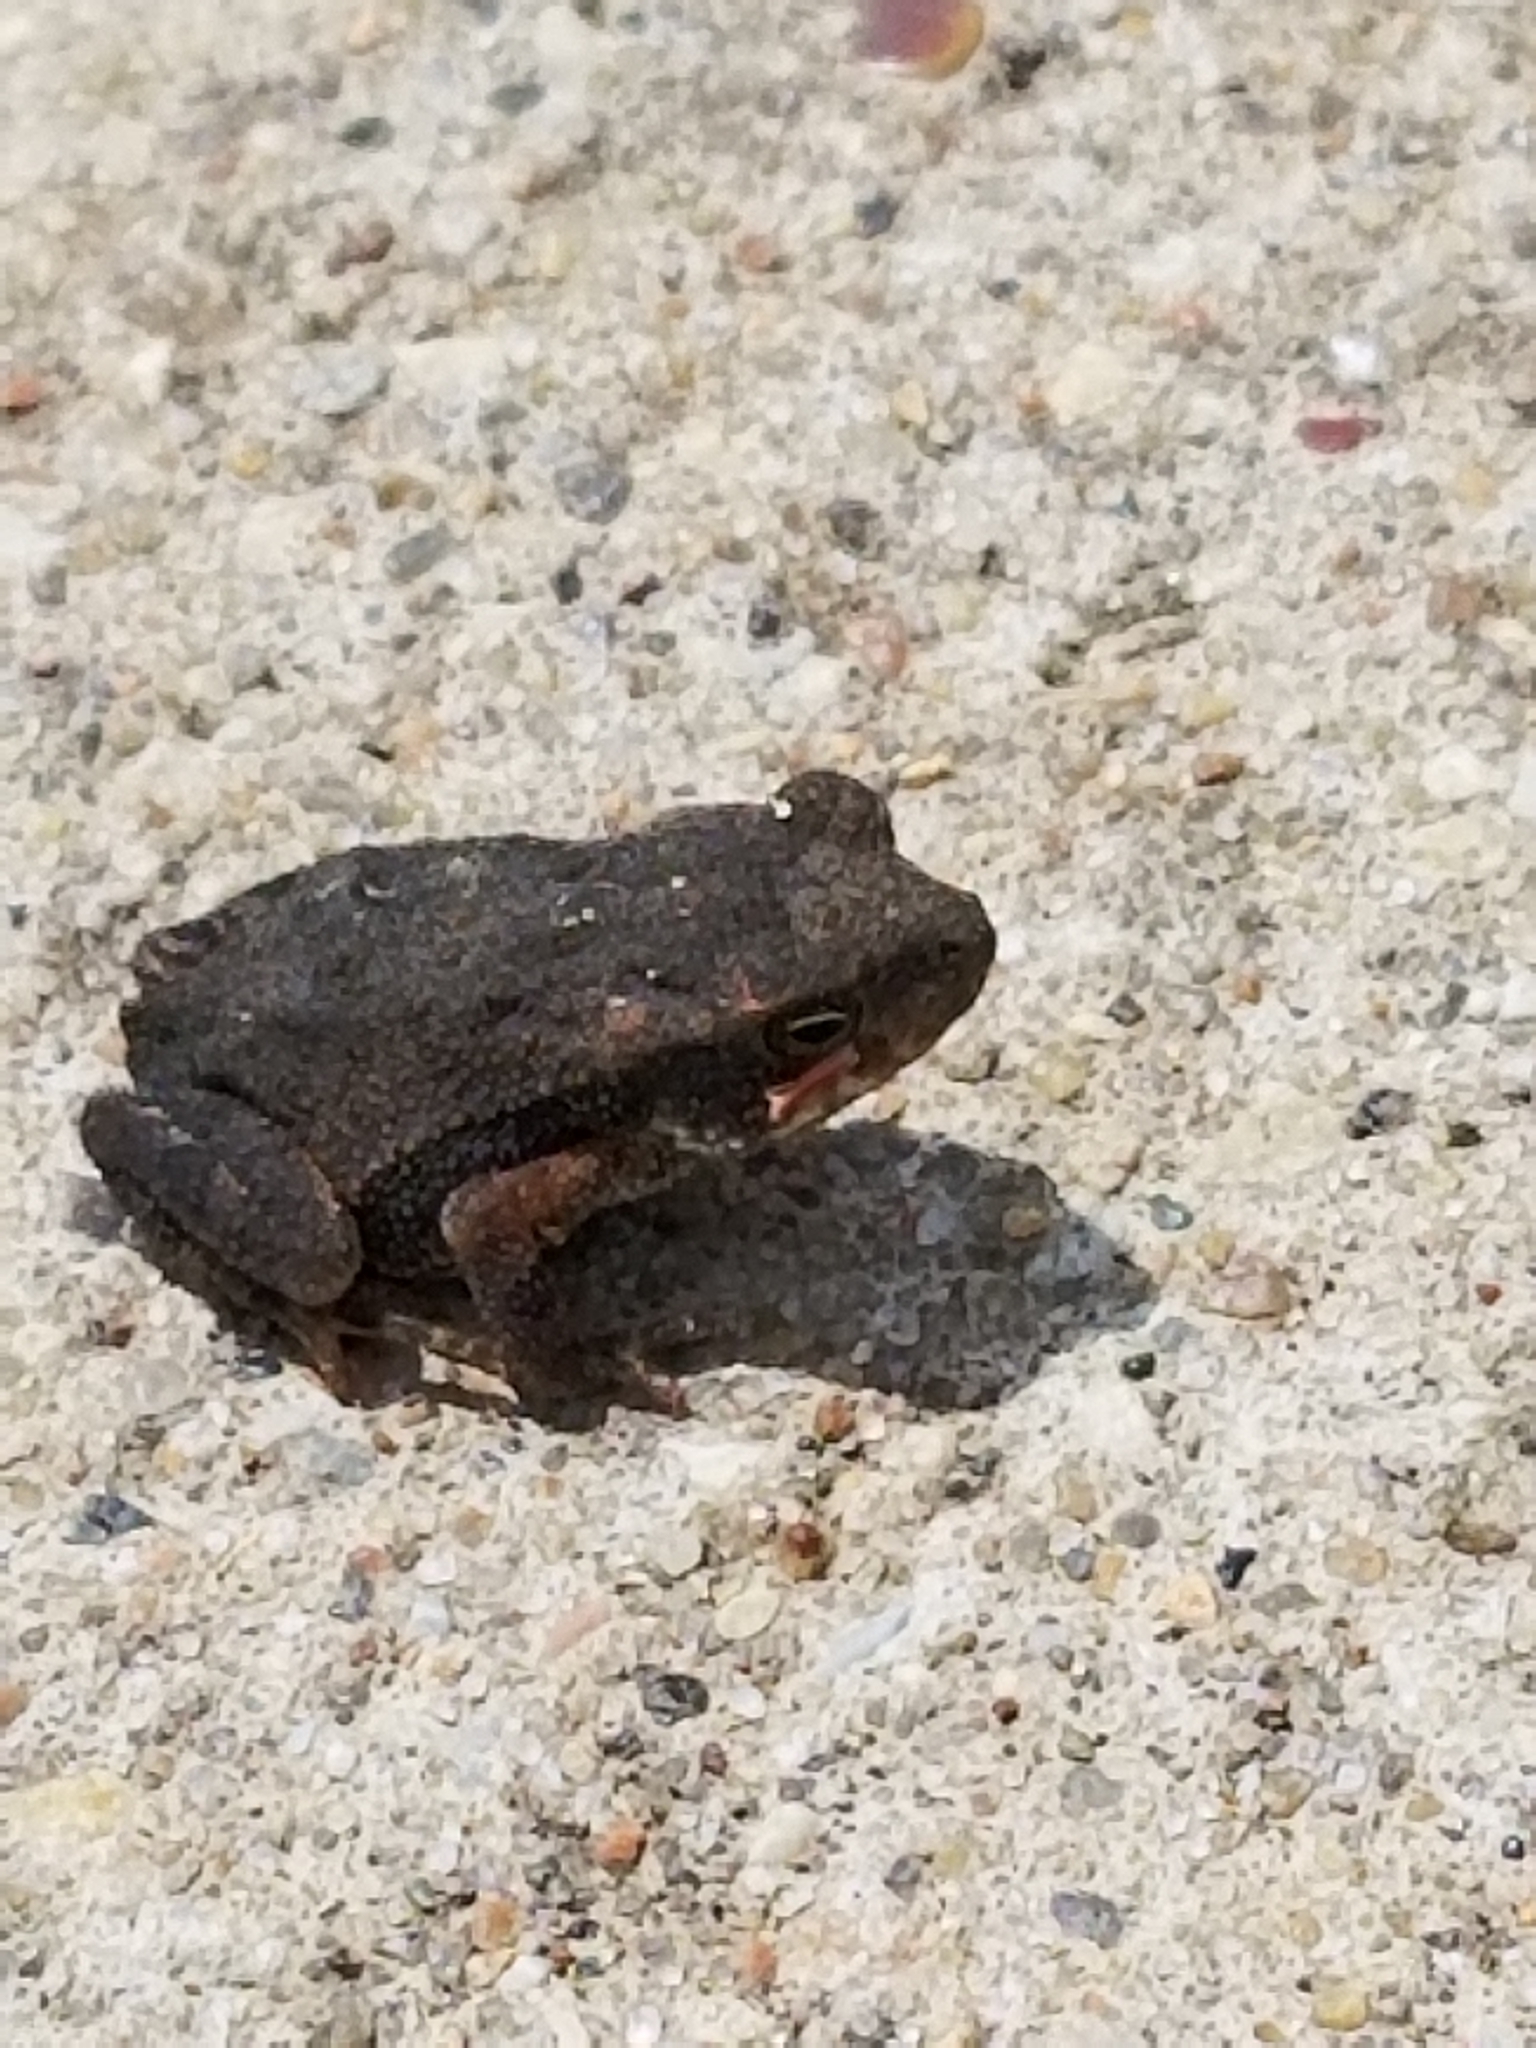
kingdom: Animalia
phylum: Chordata
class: Amphibia
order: Anura
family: Bufonidae
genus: Incilius
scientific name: Incilius nebulifer
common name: Gulf coast toad
